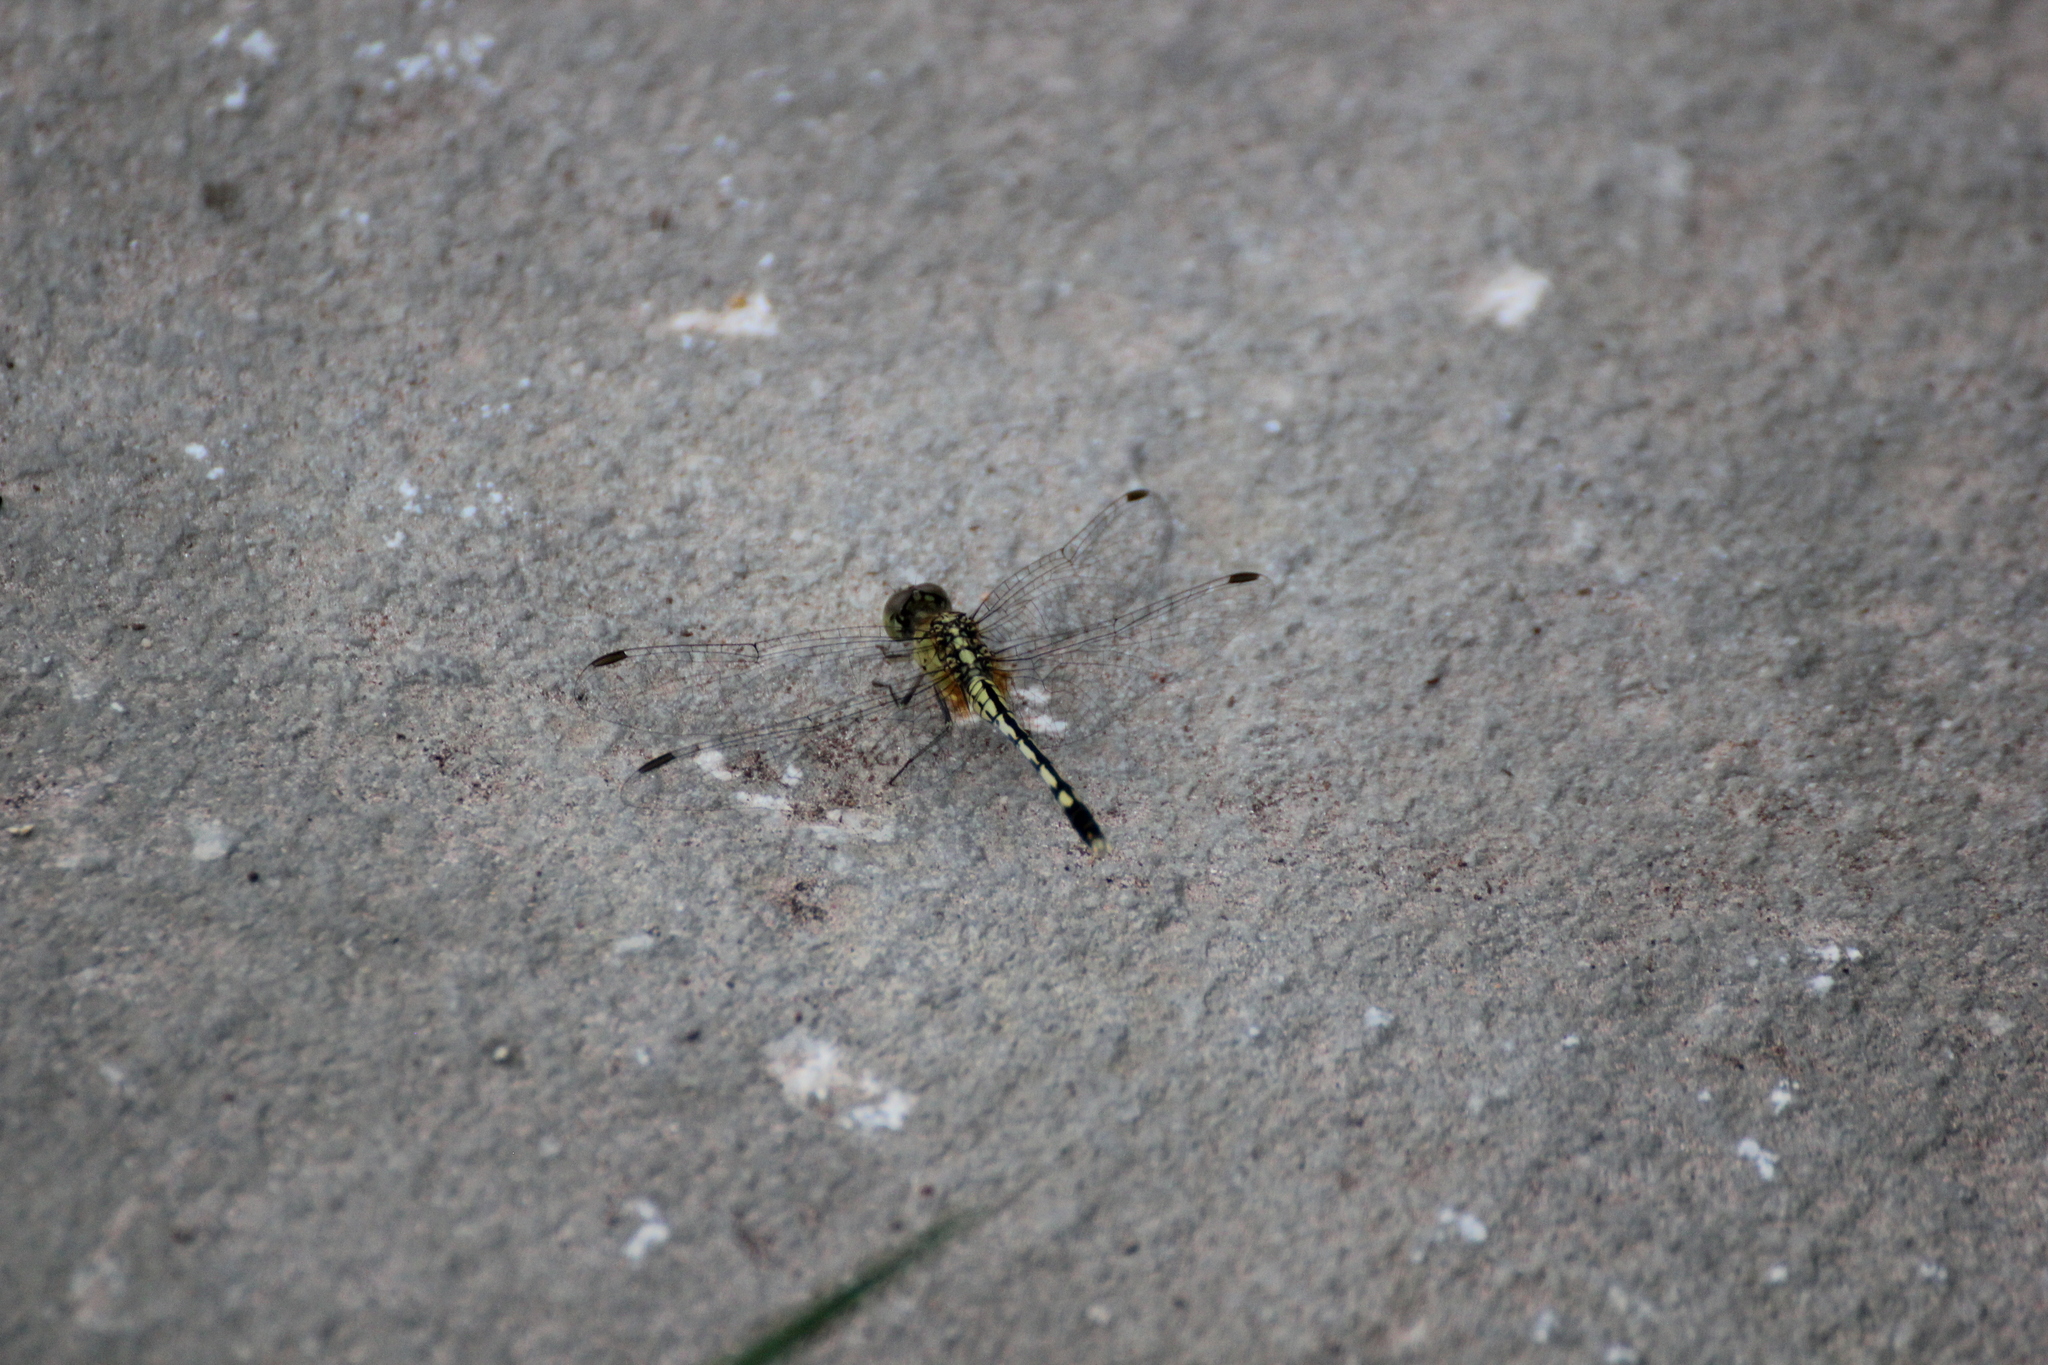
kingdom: Animalia
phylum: Arthropoda
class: Insecta
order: Odonata
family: Libellulidae
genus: Diplacodes
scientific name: Diplacodes trivialis
